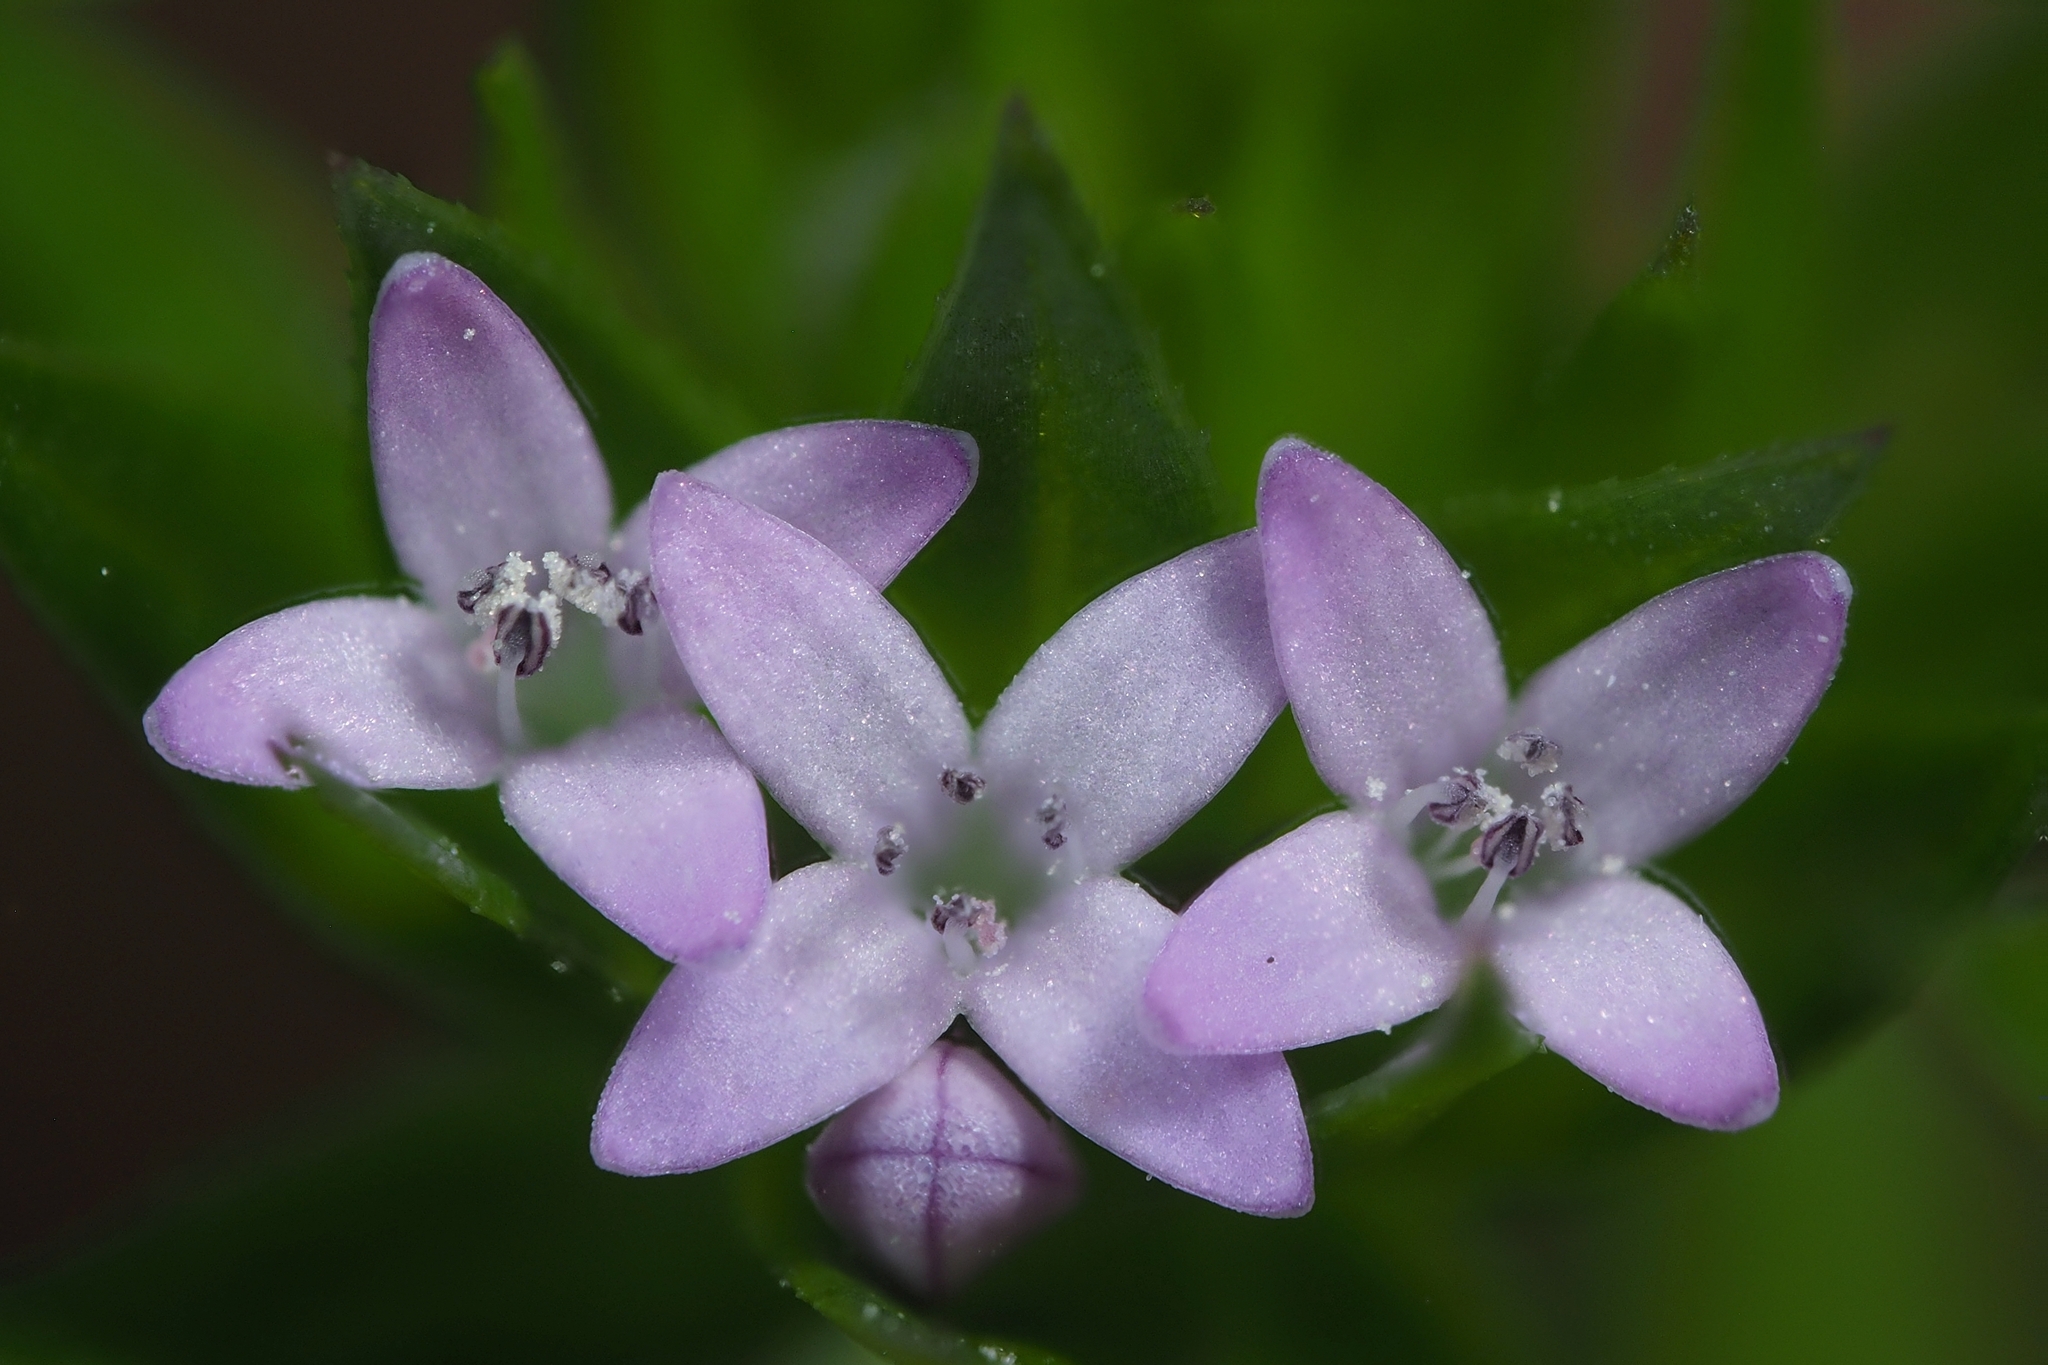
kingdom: Plantae
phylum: Tracheophyta
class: Magnoliopsida
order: Gentianales
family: Rubiaceae
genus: Sherardia
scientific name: Sherardia arvensis
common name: Field madder
